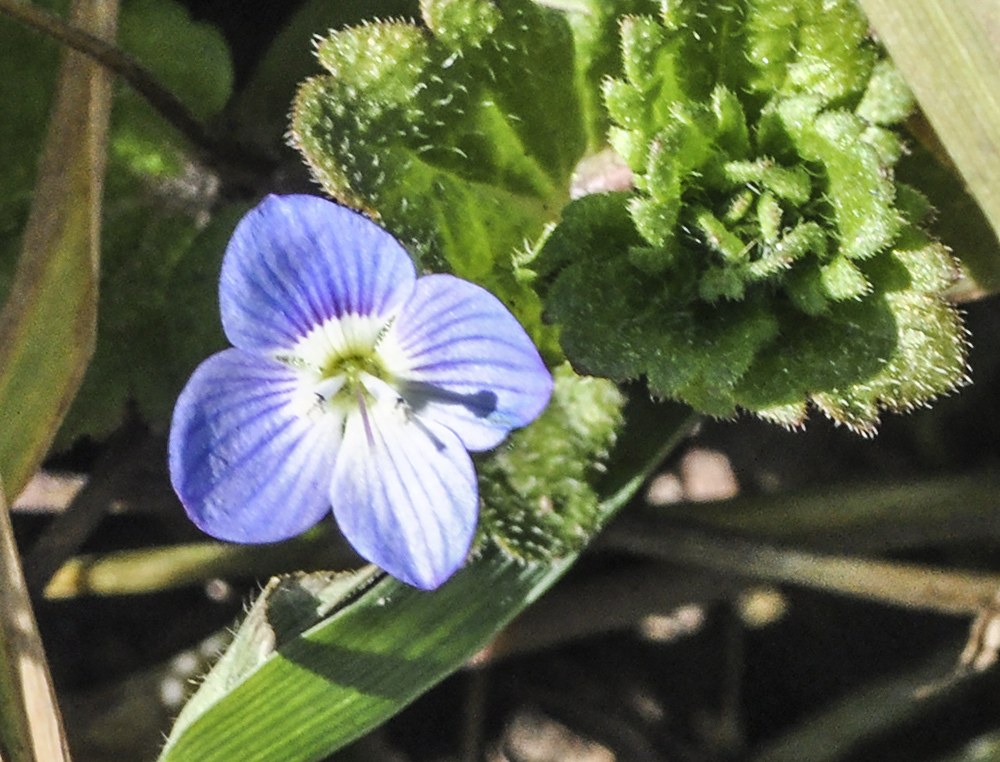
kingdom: Plantae
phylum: Tracheophyta
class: Magnoliopsida
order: Lamiales
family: Plantaginaceae
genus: Veronica
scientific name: Veronica persica
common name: Common field-speedwell
